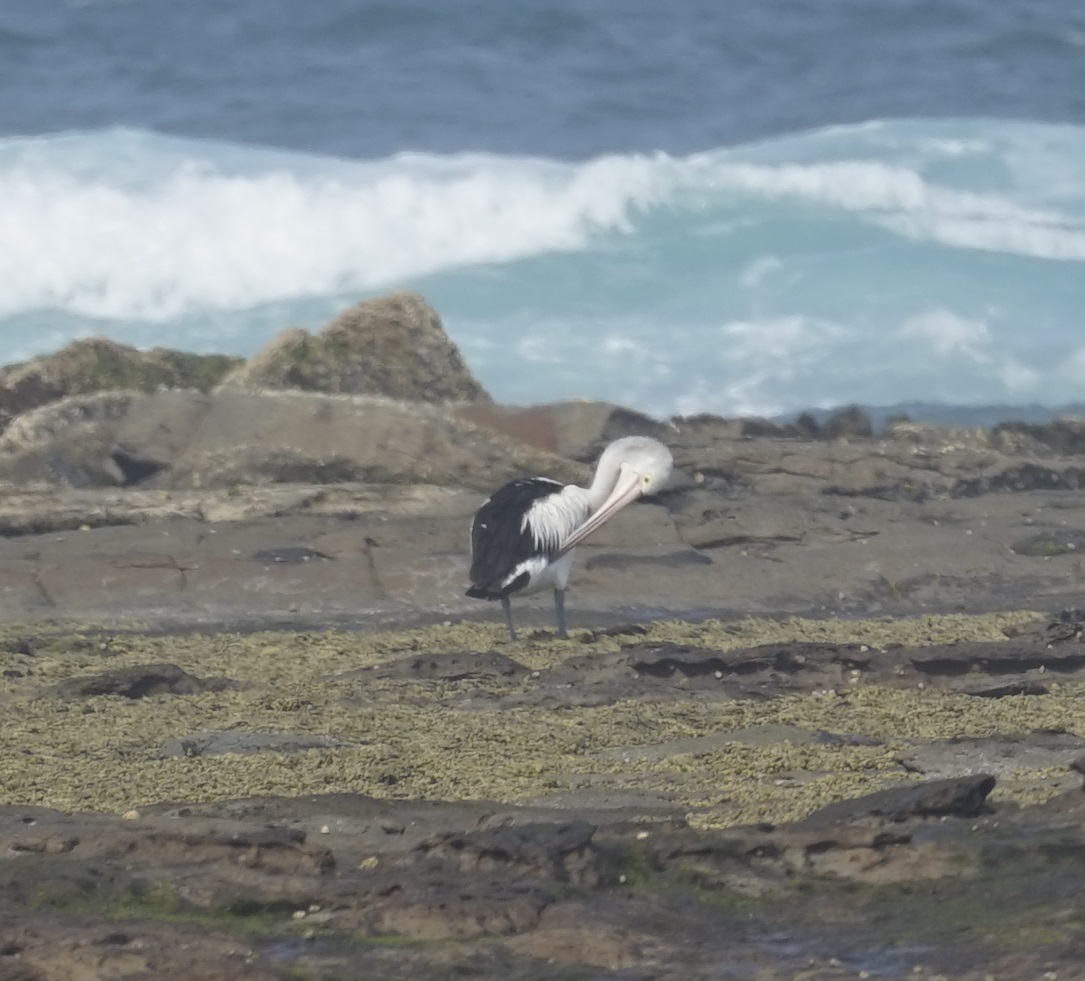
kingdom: Animalia
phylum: Chordata
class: Aves
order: Pelecaniformes
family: Pelecanidae
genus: Pelecanus
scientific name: Pelecanus conspicillatus
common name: Australian pelican
